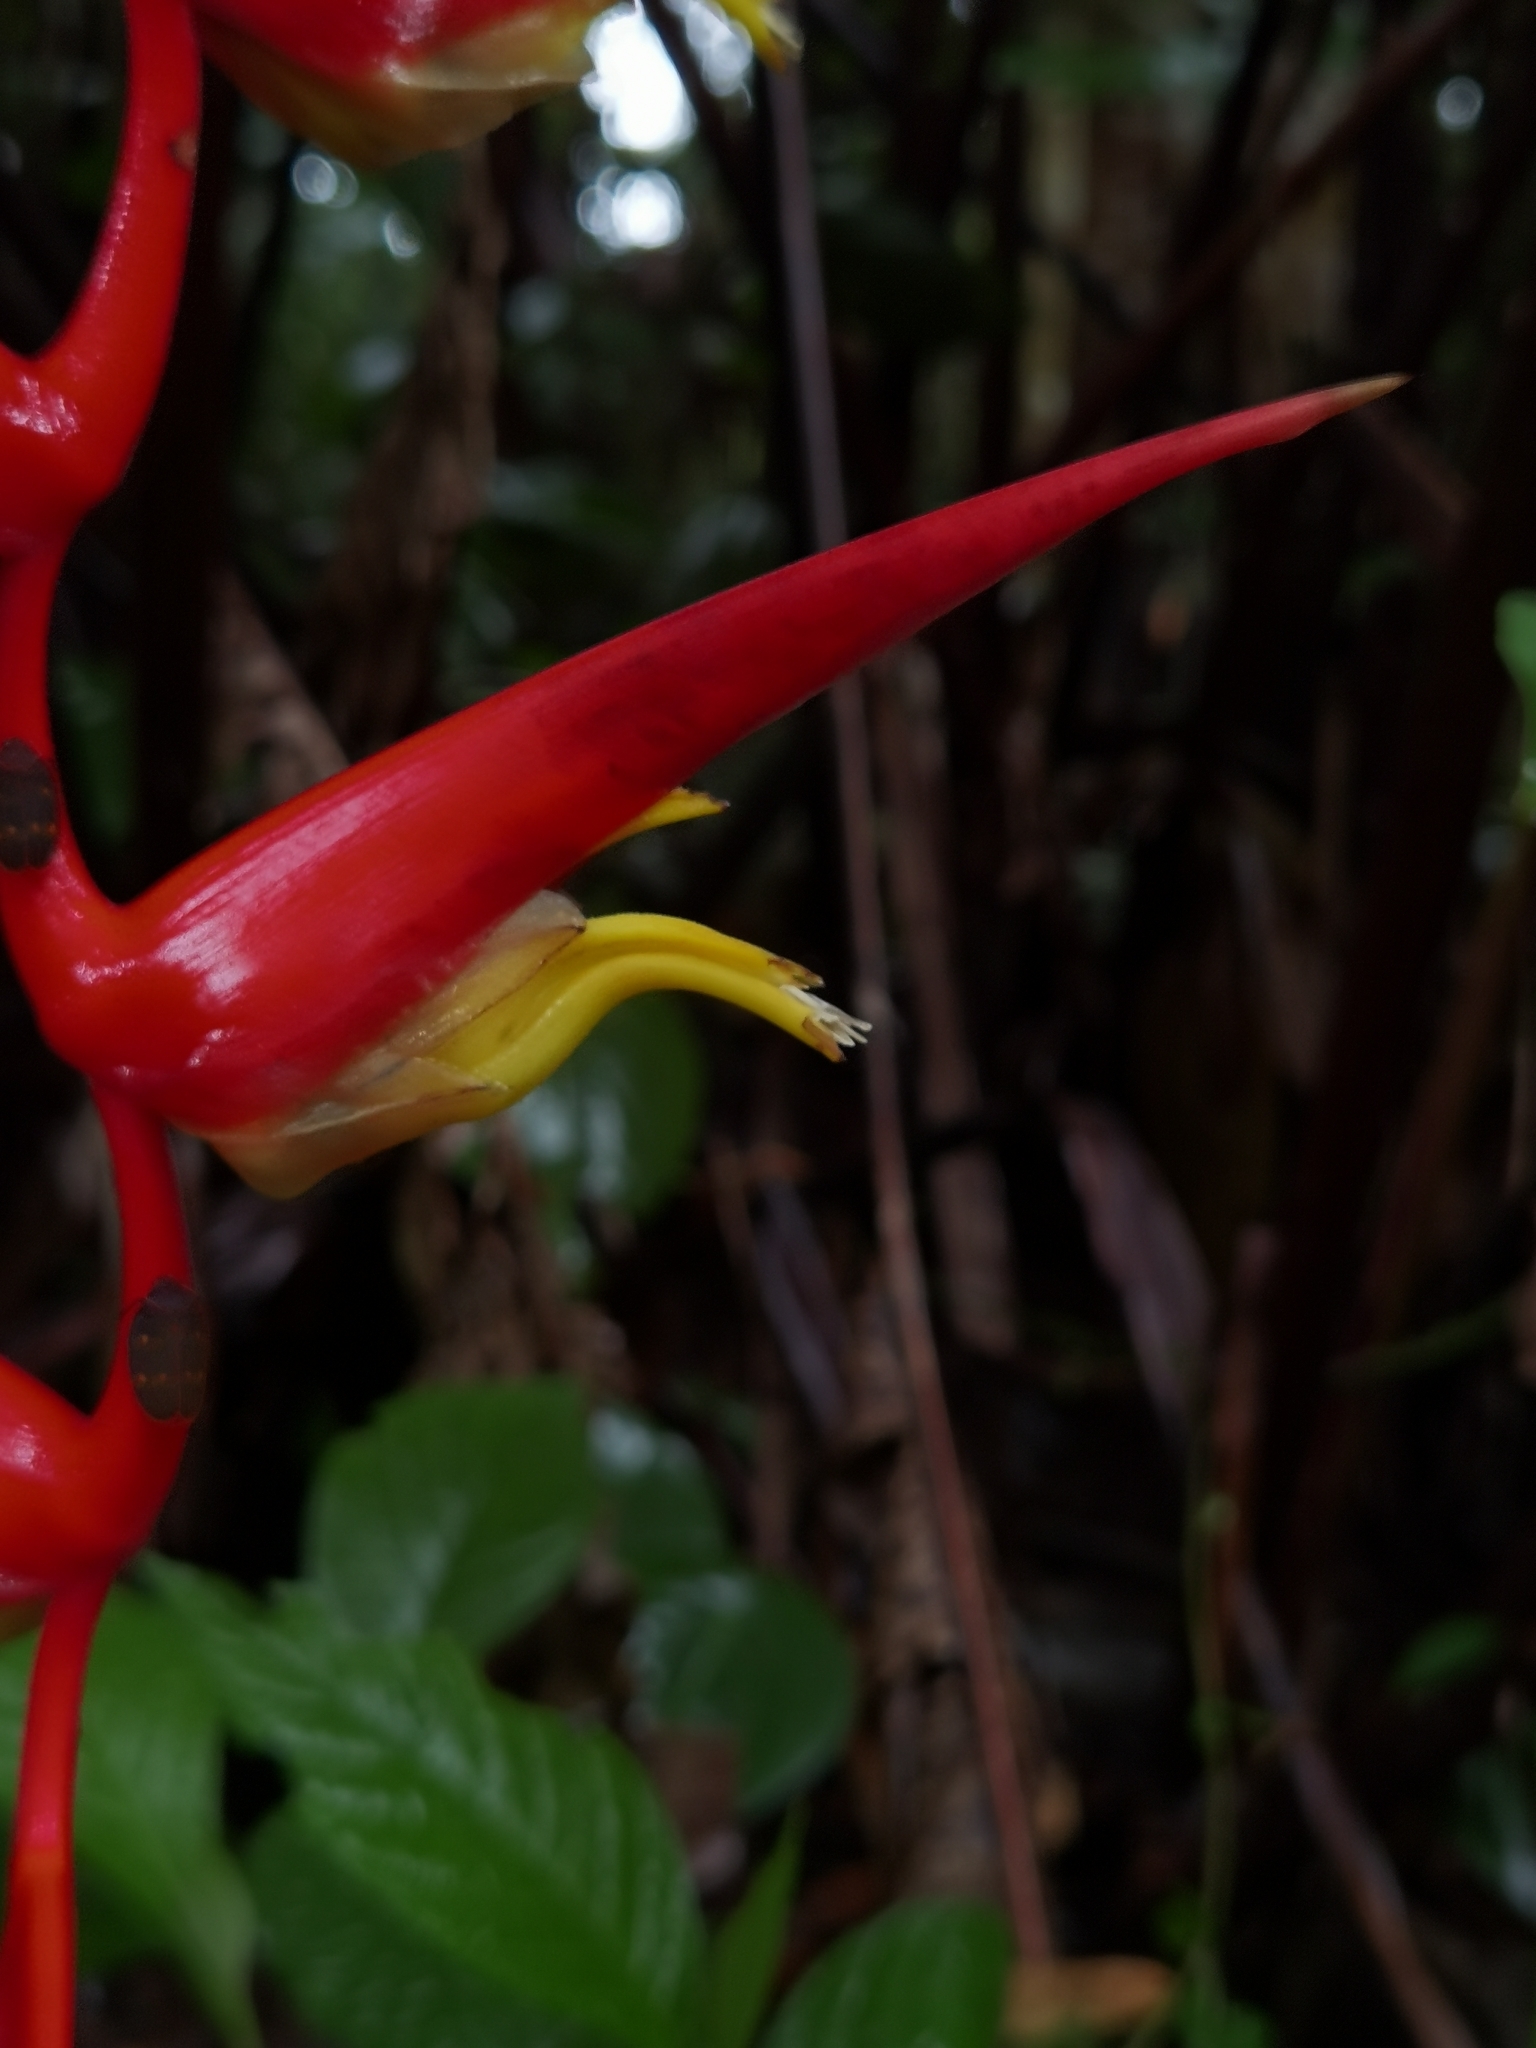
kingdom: Plantae
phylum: Tracheophyta
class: Liliopsida
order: Zingiberales
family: Heliconiaceae
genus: Heliconia
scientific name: Heliconia trichocarpa
